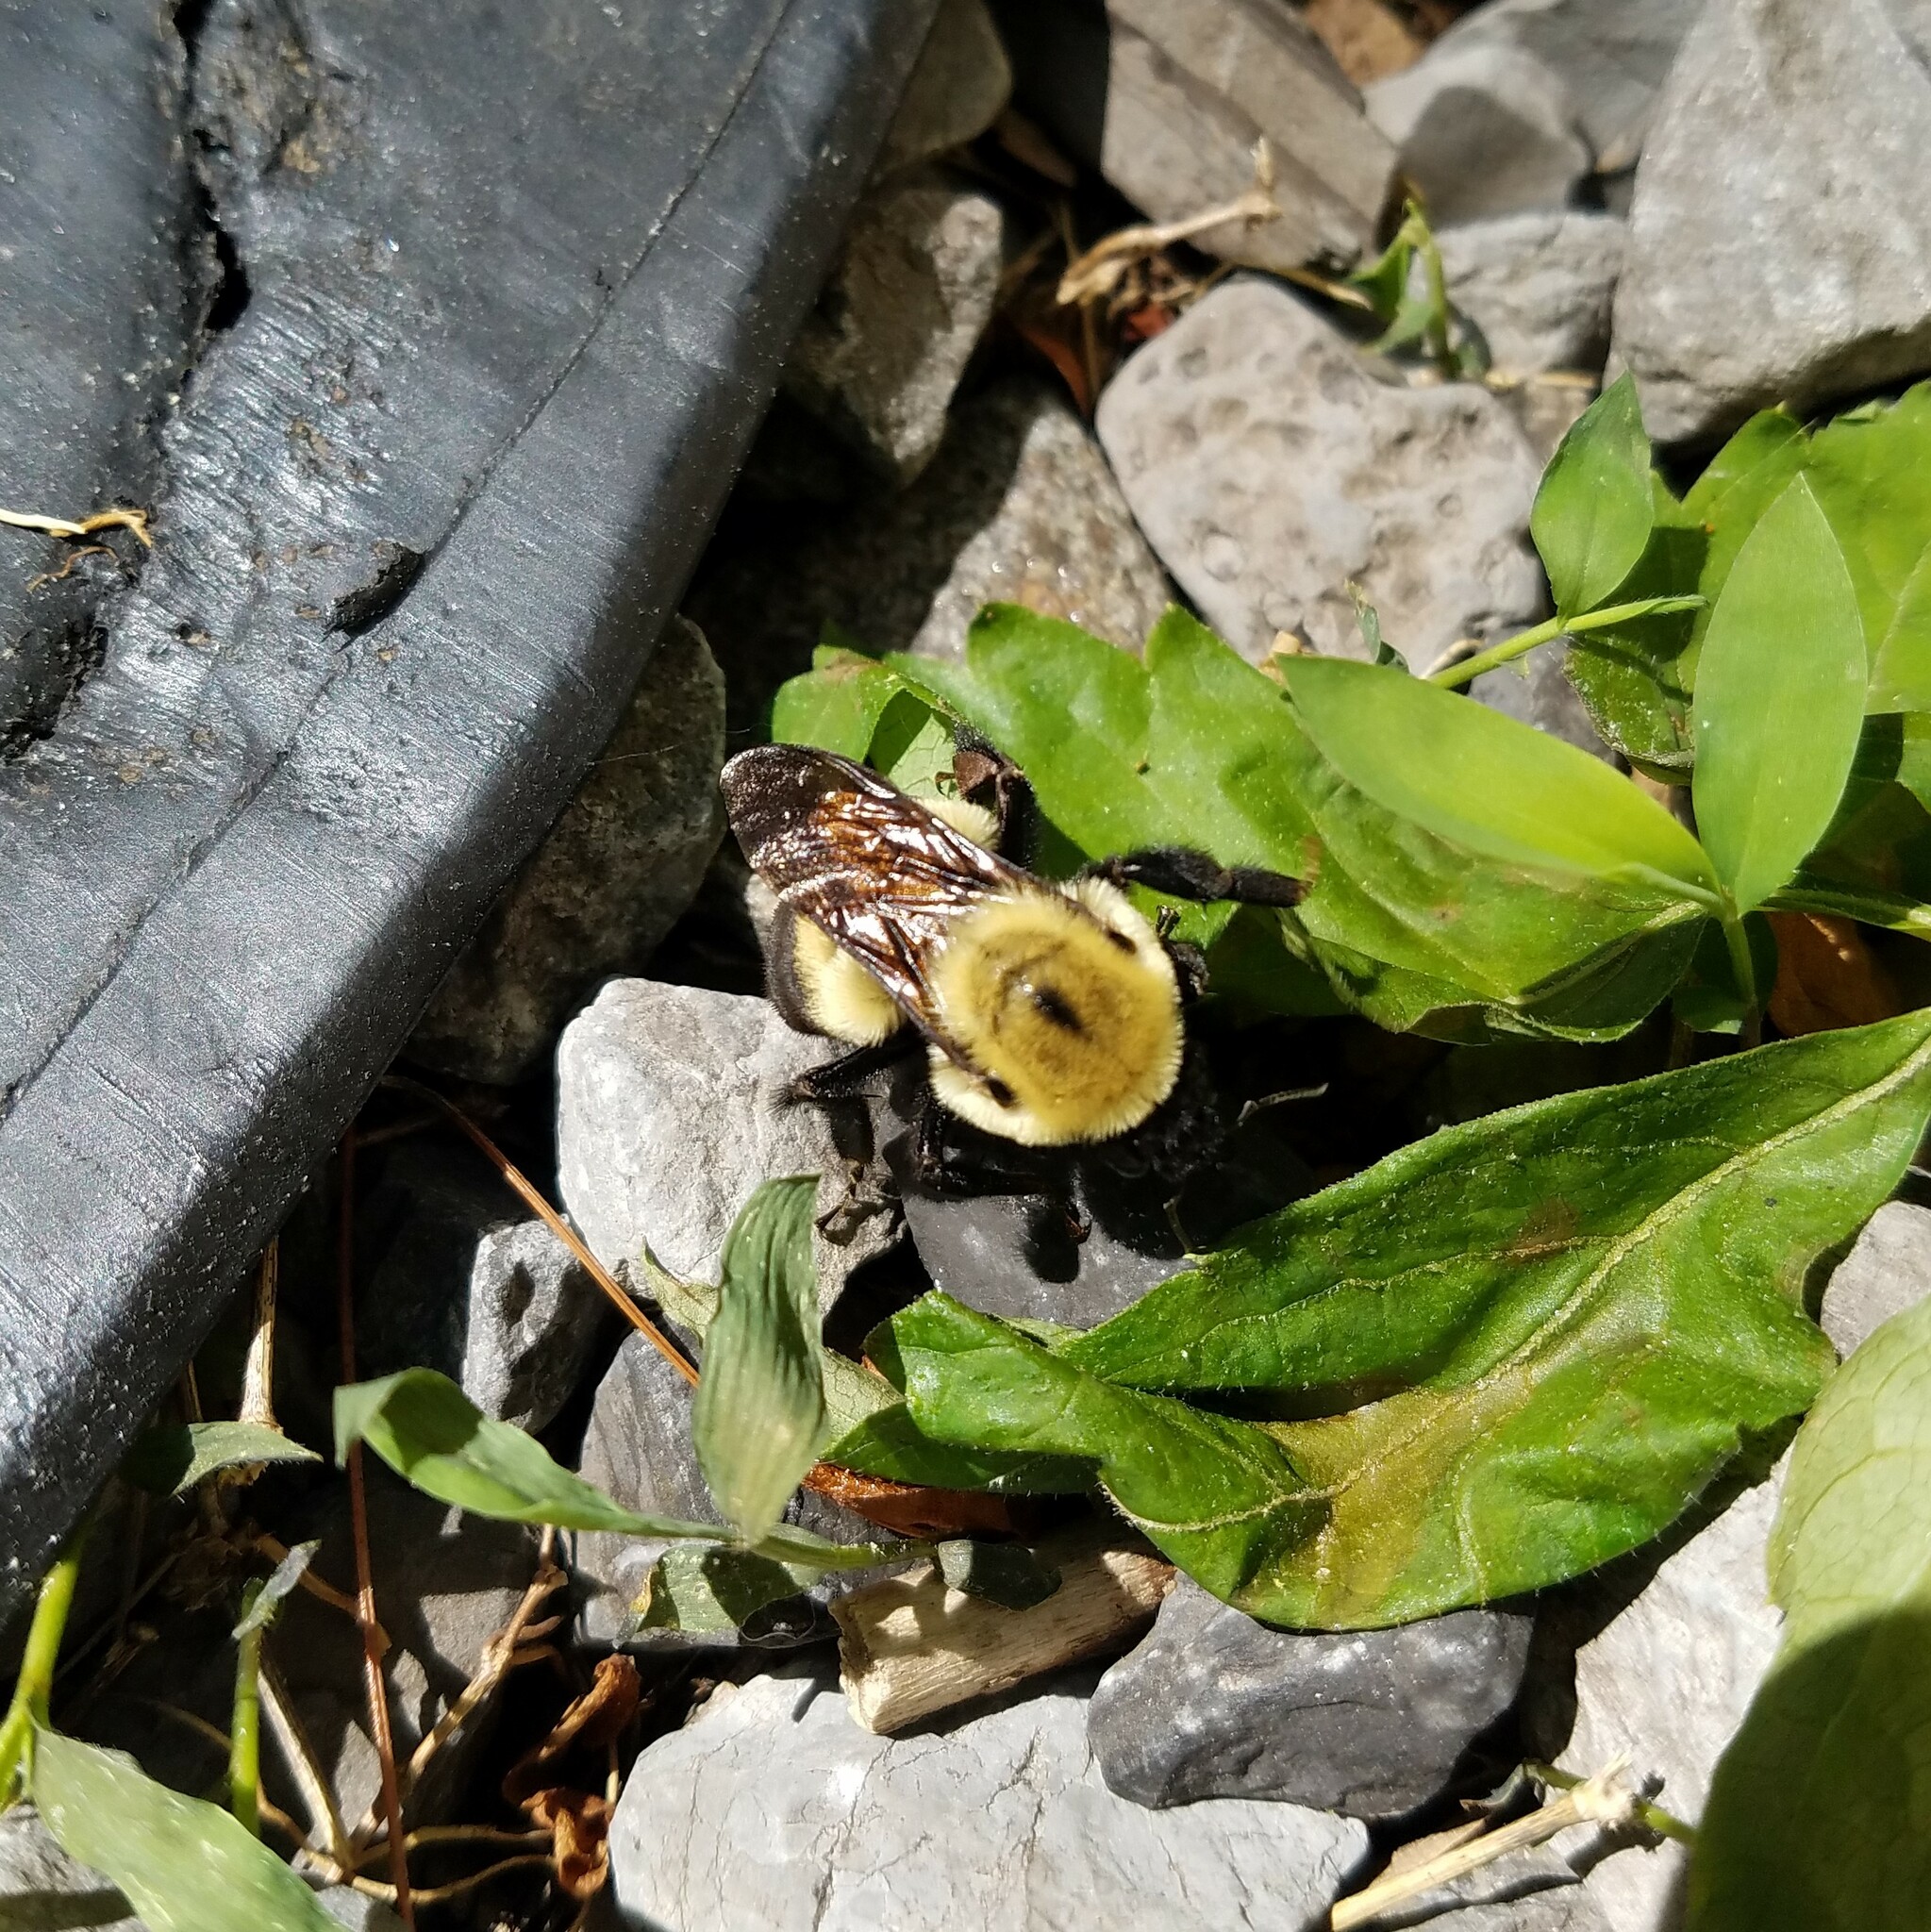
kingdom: Animalia
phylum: Arthropoda
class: Insecta
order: Hymenoptera
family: Apidae
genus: Bombus
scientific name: Bombus griseocollis
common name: Brown-belted bumble bee
